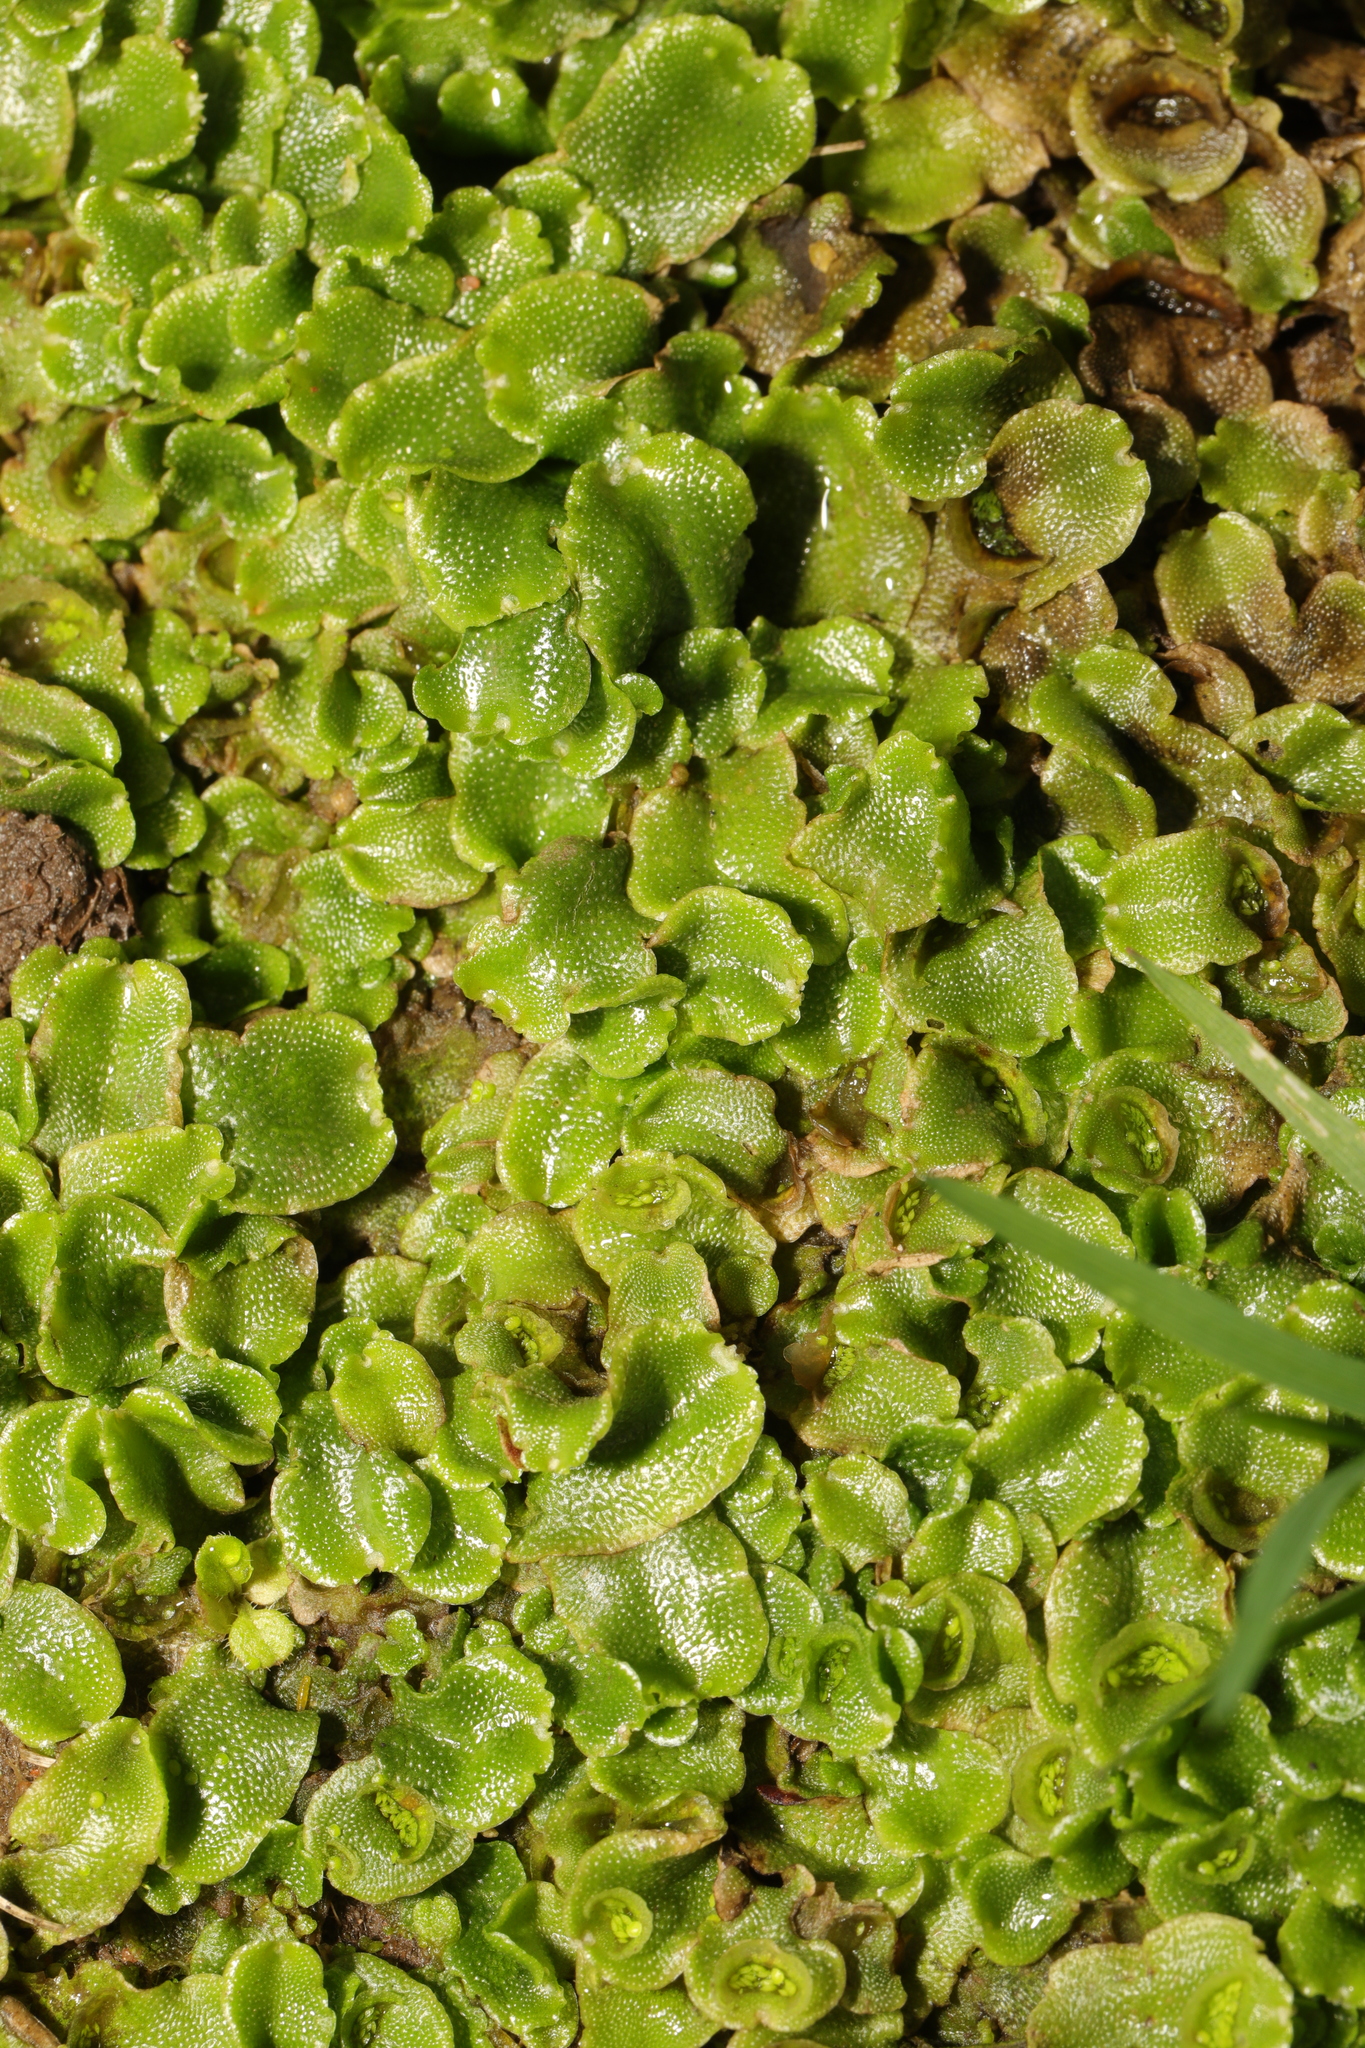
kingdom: Plantae
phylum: Marchantiophyta
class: Marchantiopsida
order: Lunulariales
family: Lunulariaceae
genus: Lunularia
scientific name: Lunularia cruciata
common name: Crescent-cup liverwort
